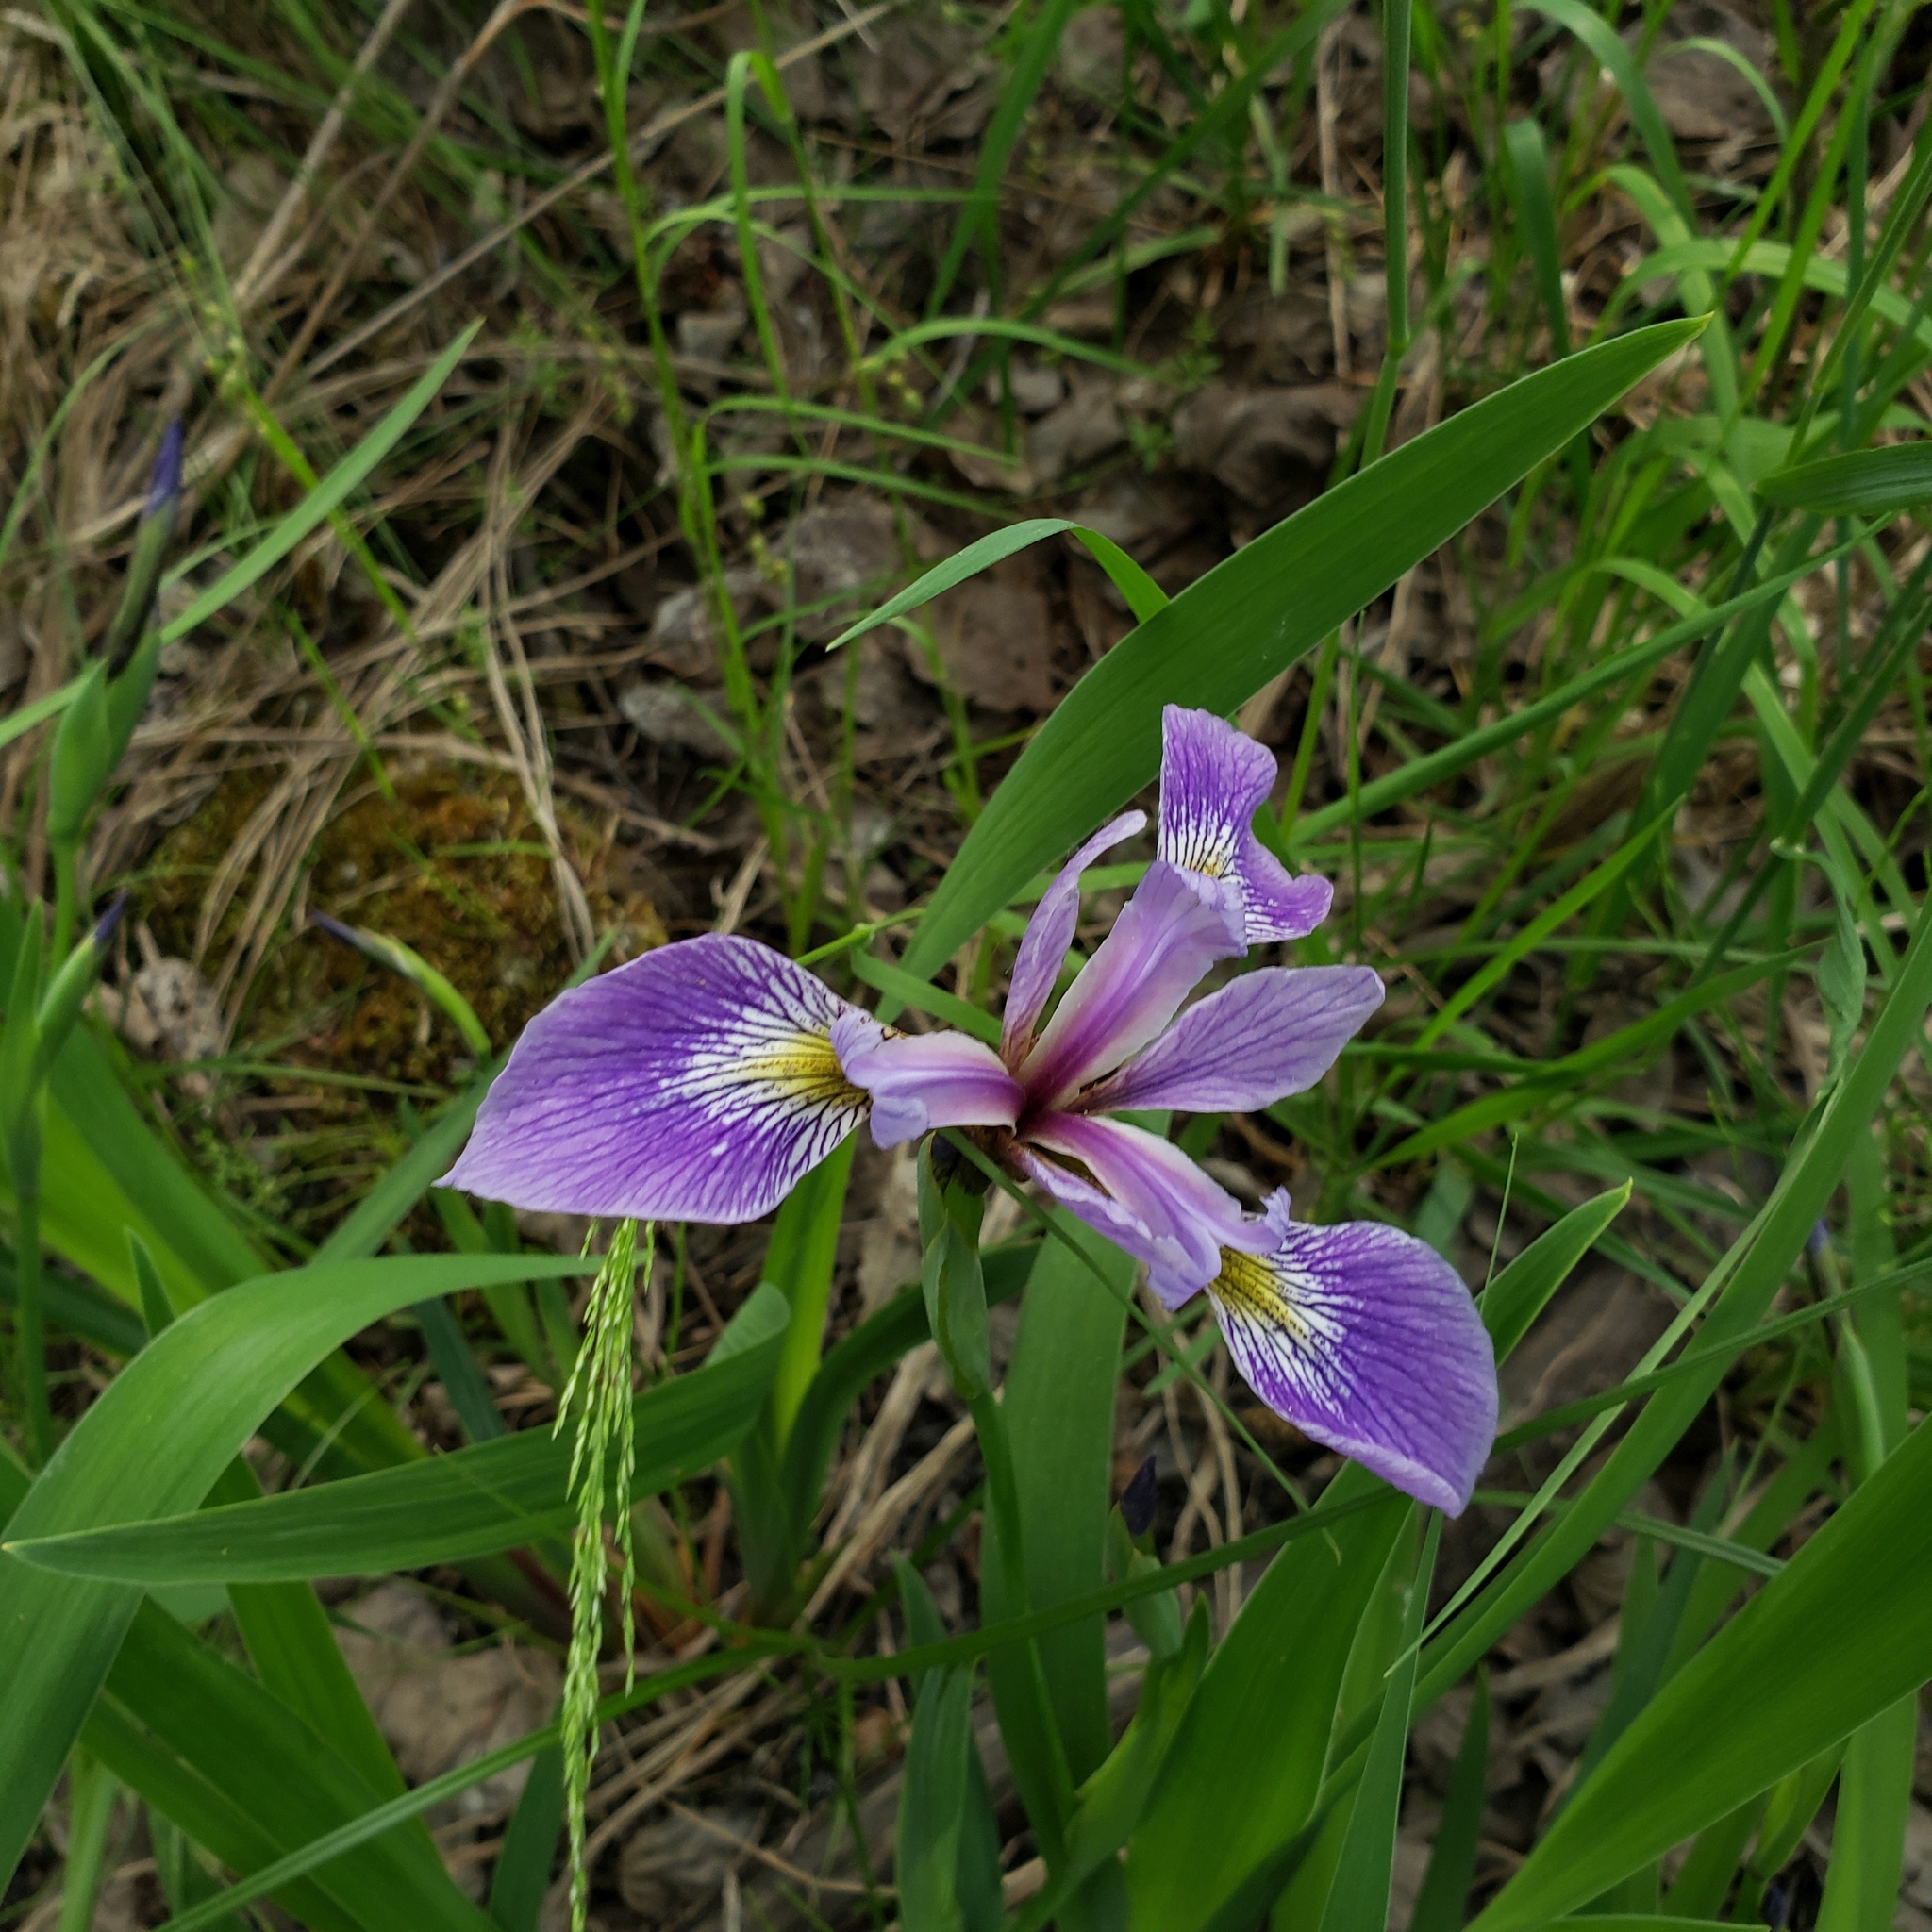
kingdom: Plantae
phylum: Tracheophyta
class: Liliopsida
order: Asparagales
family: Iridaceae
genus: Iris
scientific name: Iris versicolor
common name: Purple iris
